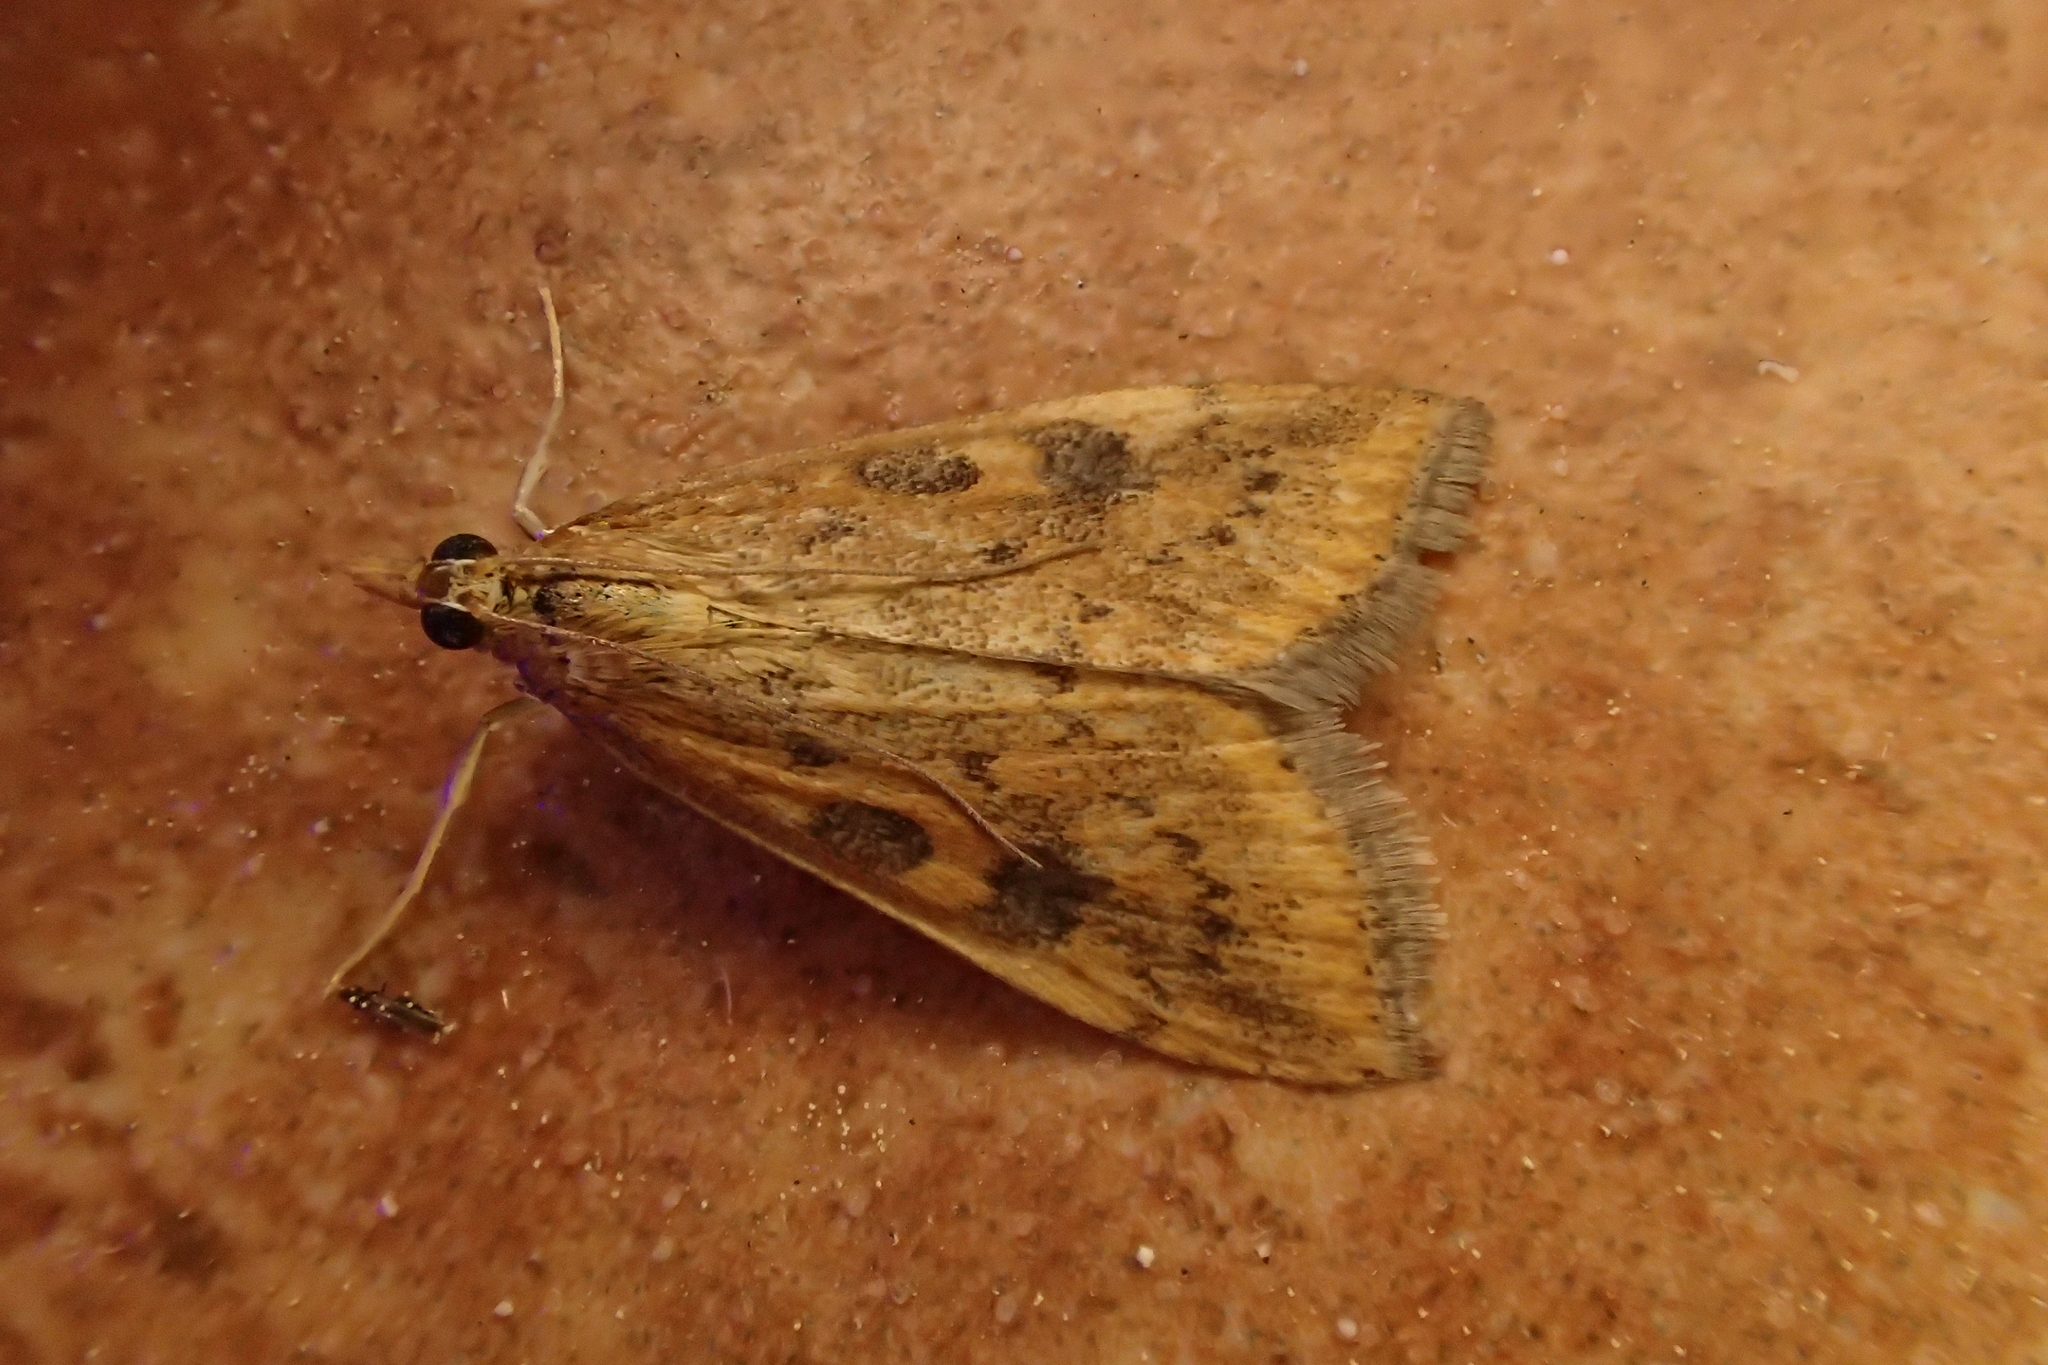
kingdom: Animalia
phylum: Arthropoda
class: Insecta
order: Lepidoptera
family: Crambidae
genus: Udea
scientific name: Udea ferrugalis
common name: Rusty dot
